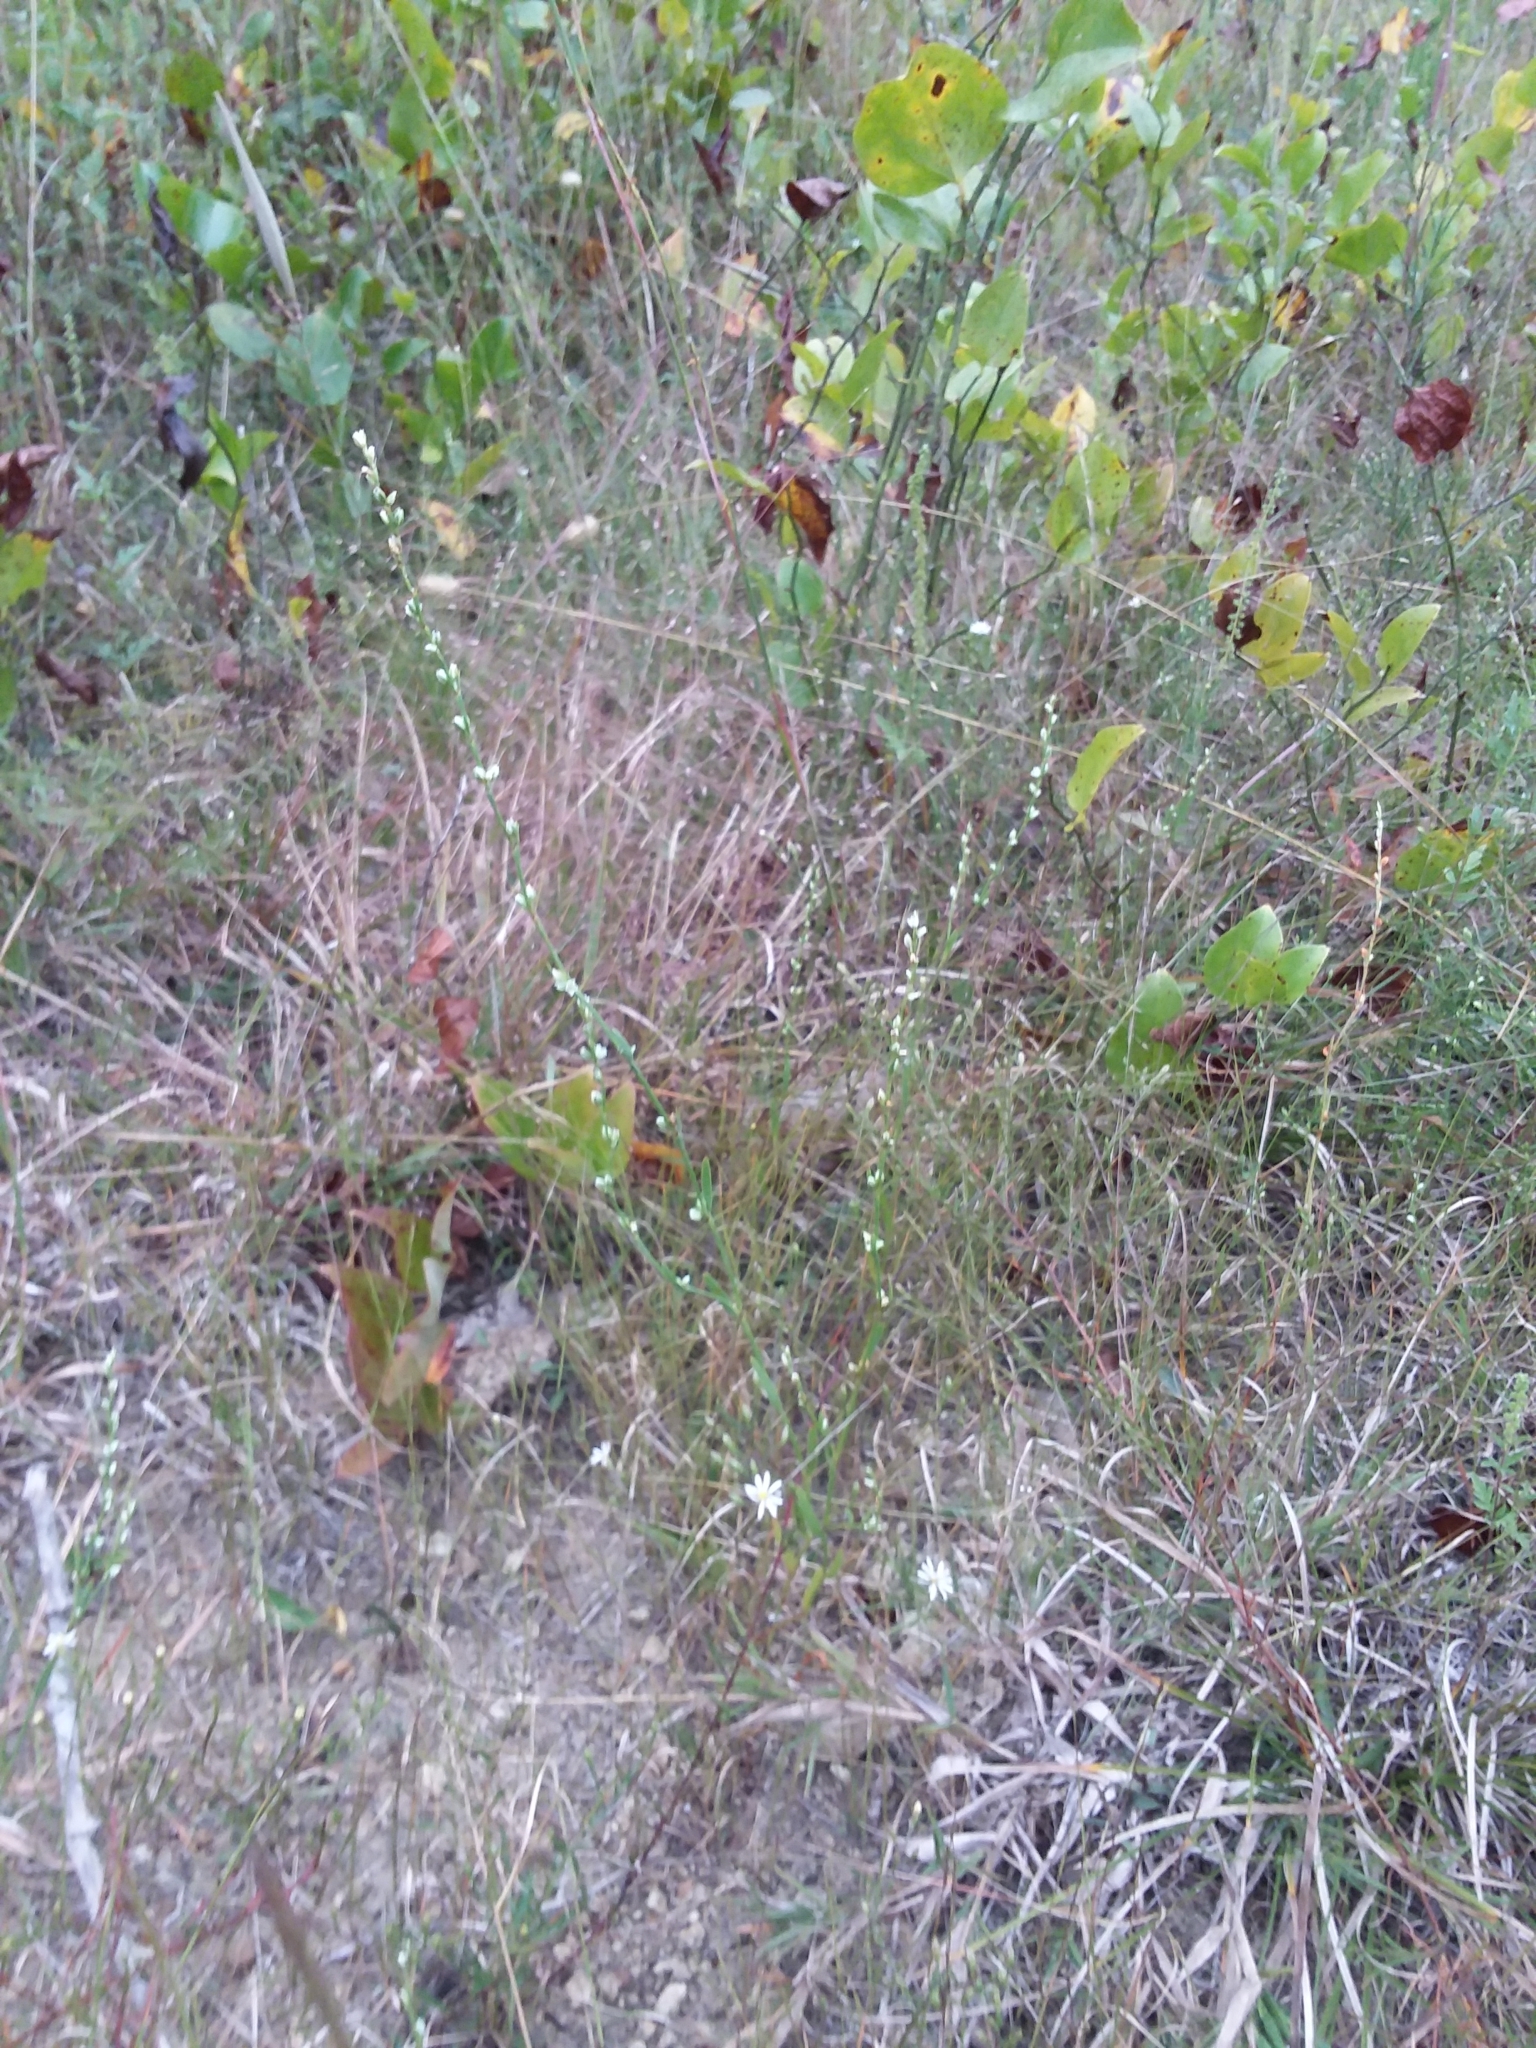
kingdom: Plantae
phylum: Tracheophyta
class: Magnoliopsida
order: Caryophyllales
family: Polygonaceae
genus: Polygonum
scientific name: Polygonum tenue
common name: Pleat-leaved knotweed
